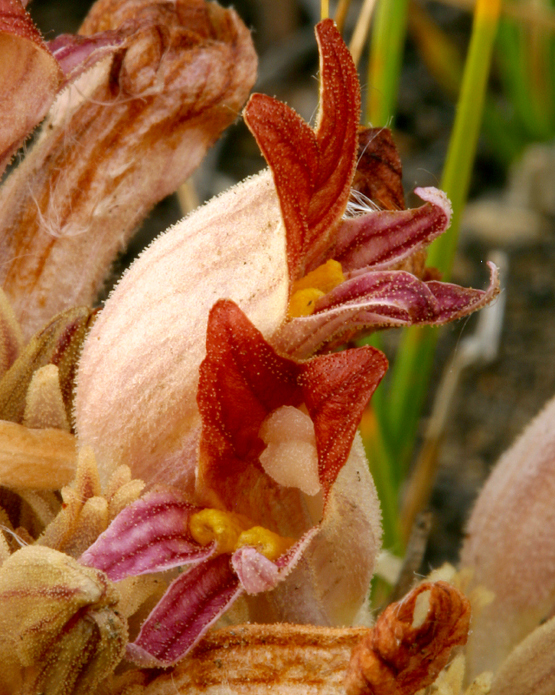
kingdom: Plantae
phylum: Tracheophyta
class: Magnoliopsida
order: Lamiales
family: Orobanchaceae
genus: Aphyllon
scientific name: Aphyllon corymbosum
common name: Flat-top broomrape
